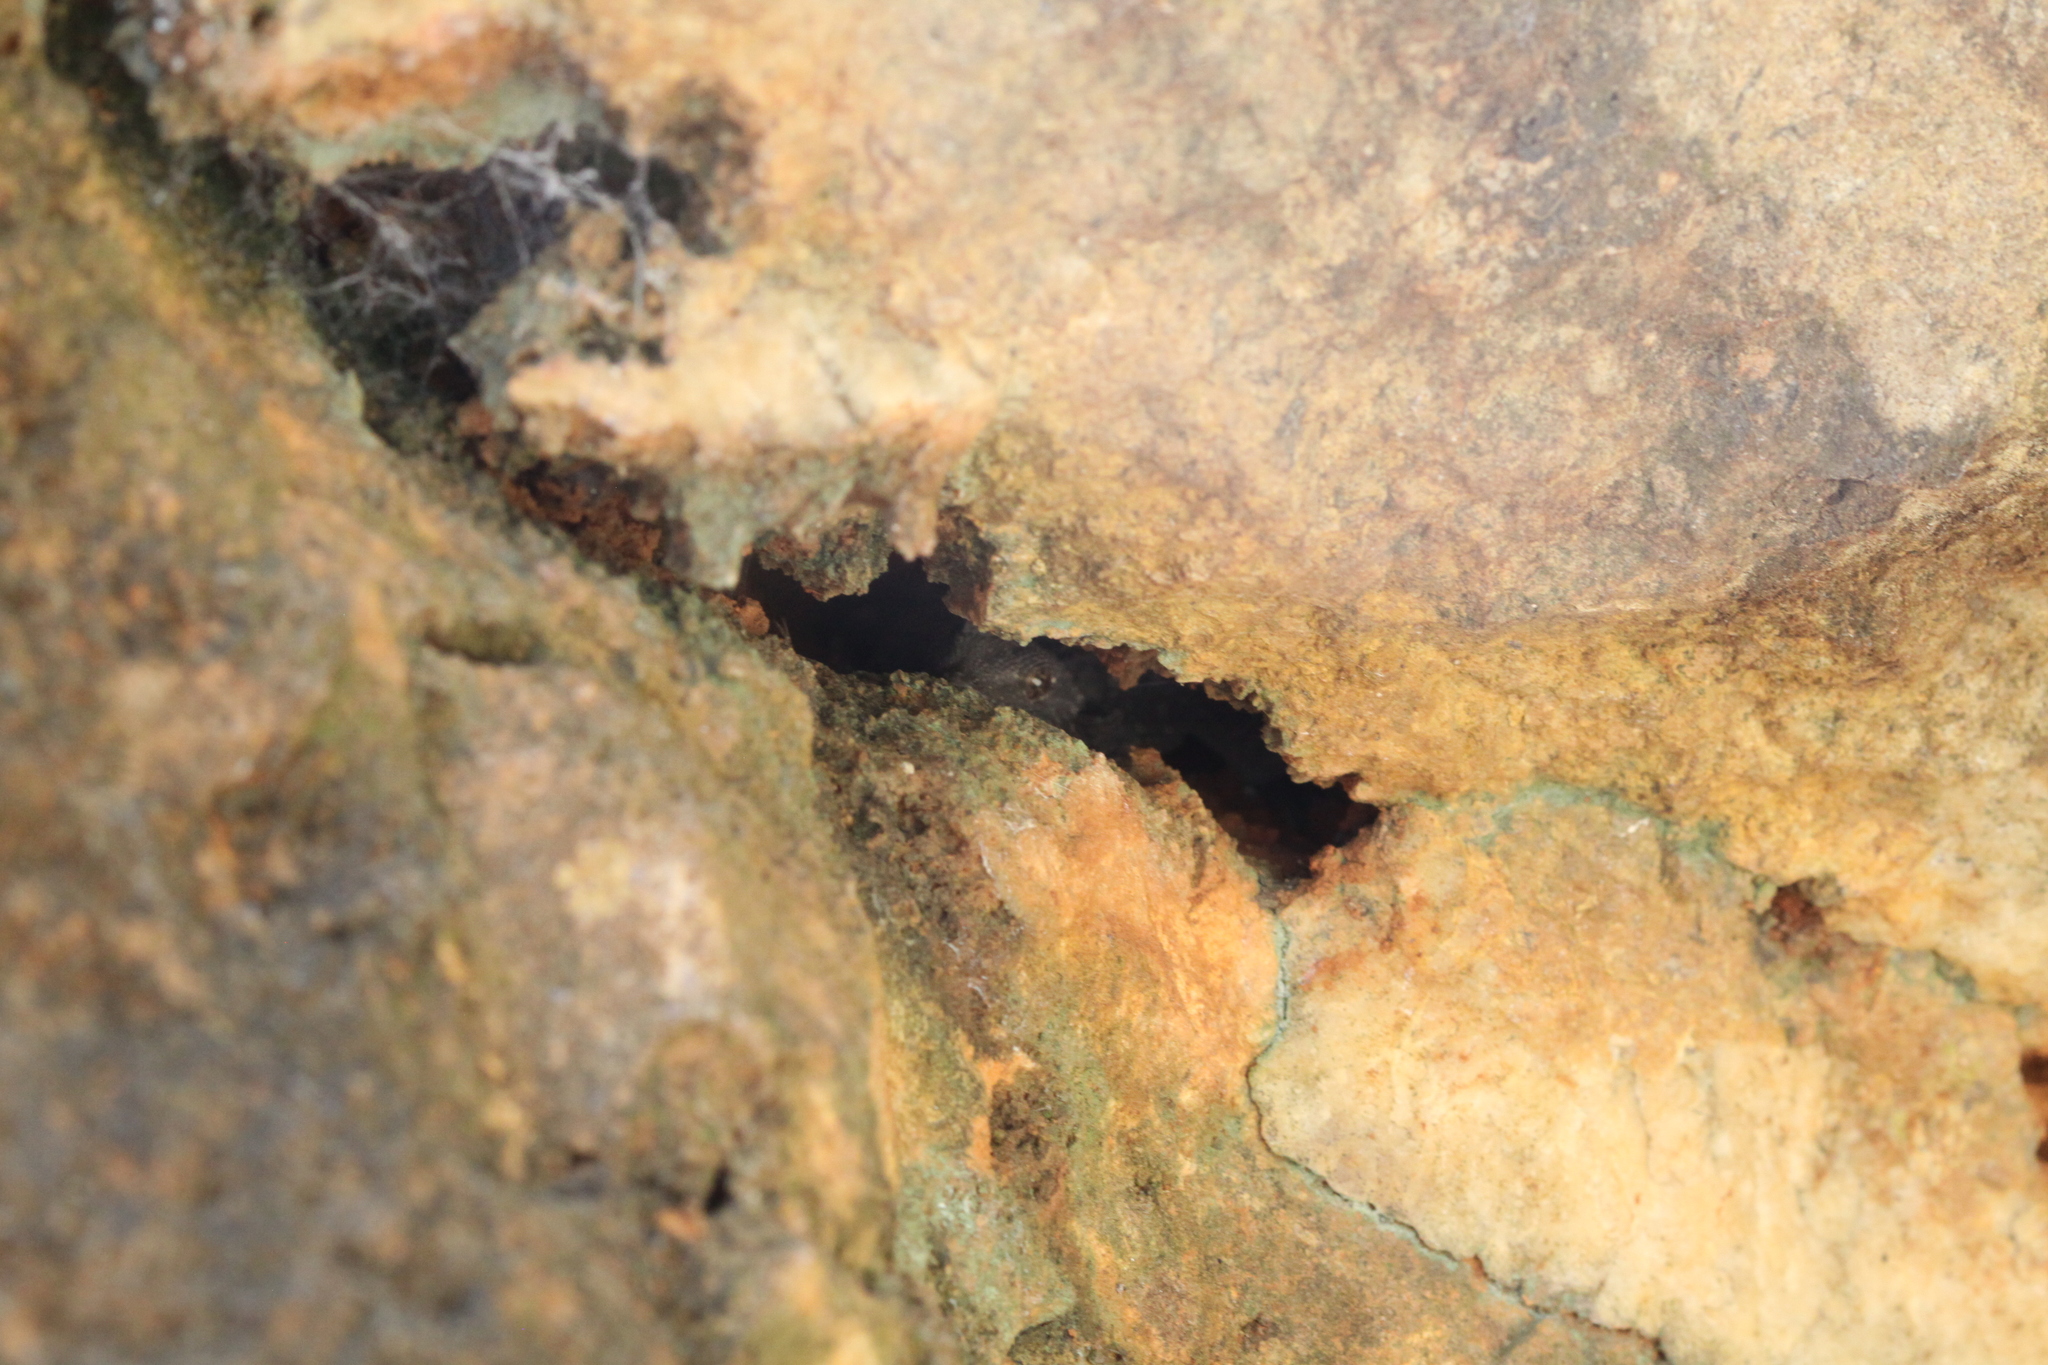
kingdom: Animalia
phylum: Chordata
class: Squamata
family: Phyllodactylidae
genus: Tarentola
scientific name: Tarentola mauritanica
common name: Moorish gecko
